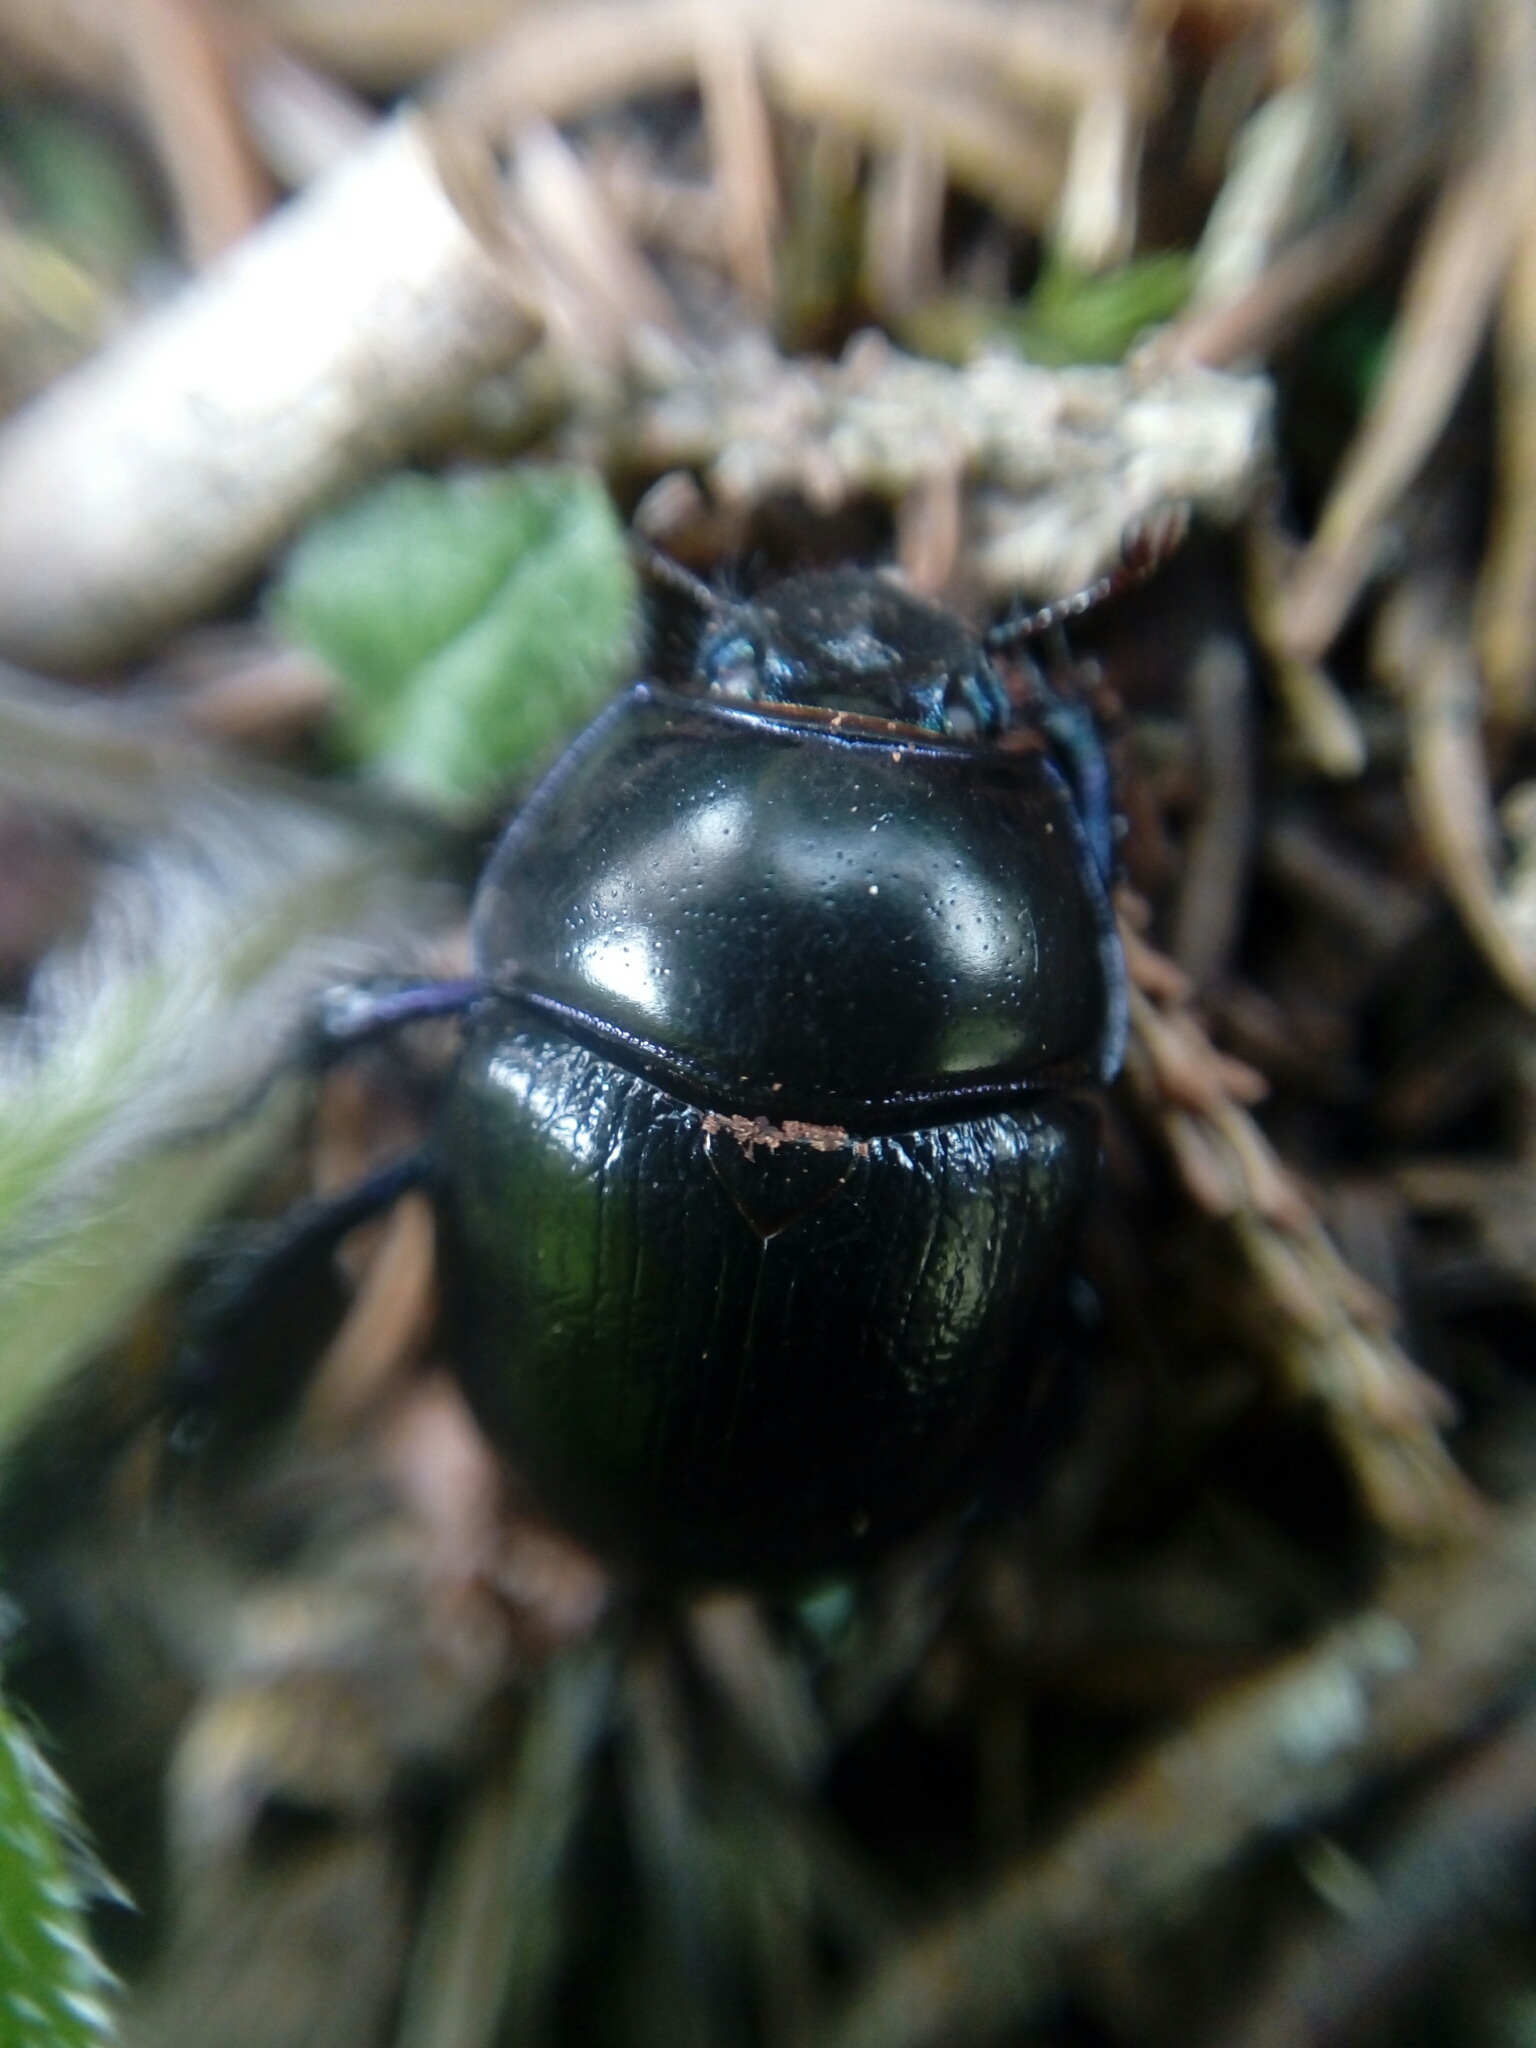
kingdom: Animalia
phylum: Arthropoda
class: Insecta
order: Coleoptera
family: Geotrupidae
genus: Anoplotrupes
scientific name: Anoplotrupes stercorosus
